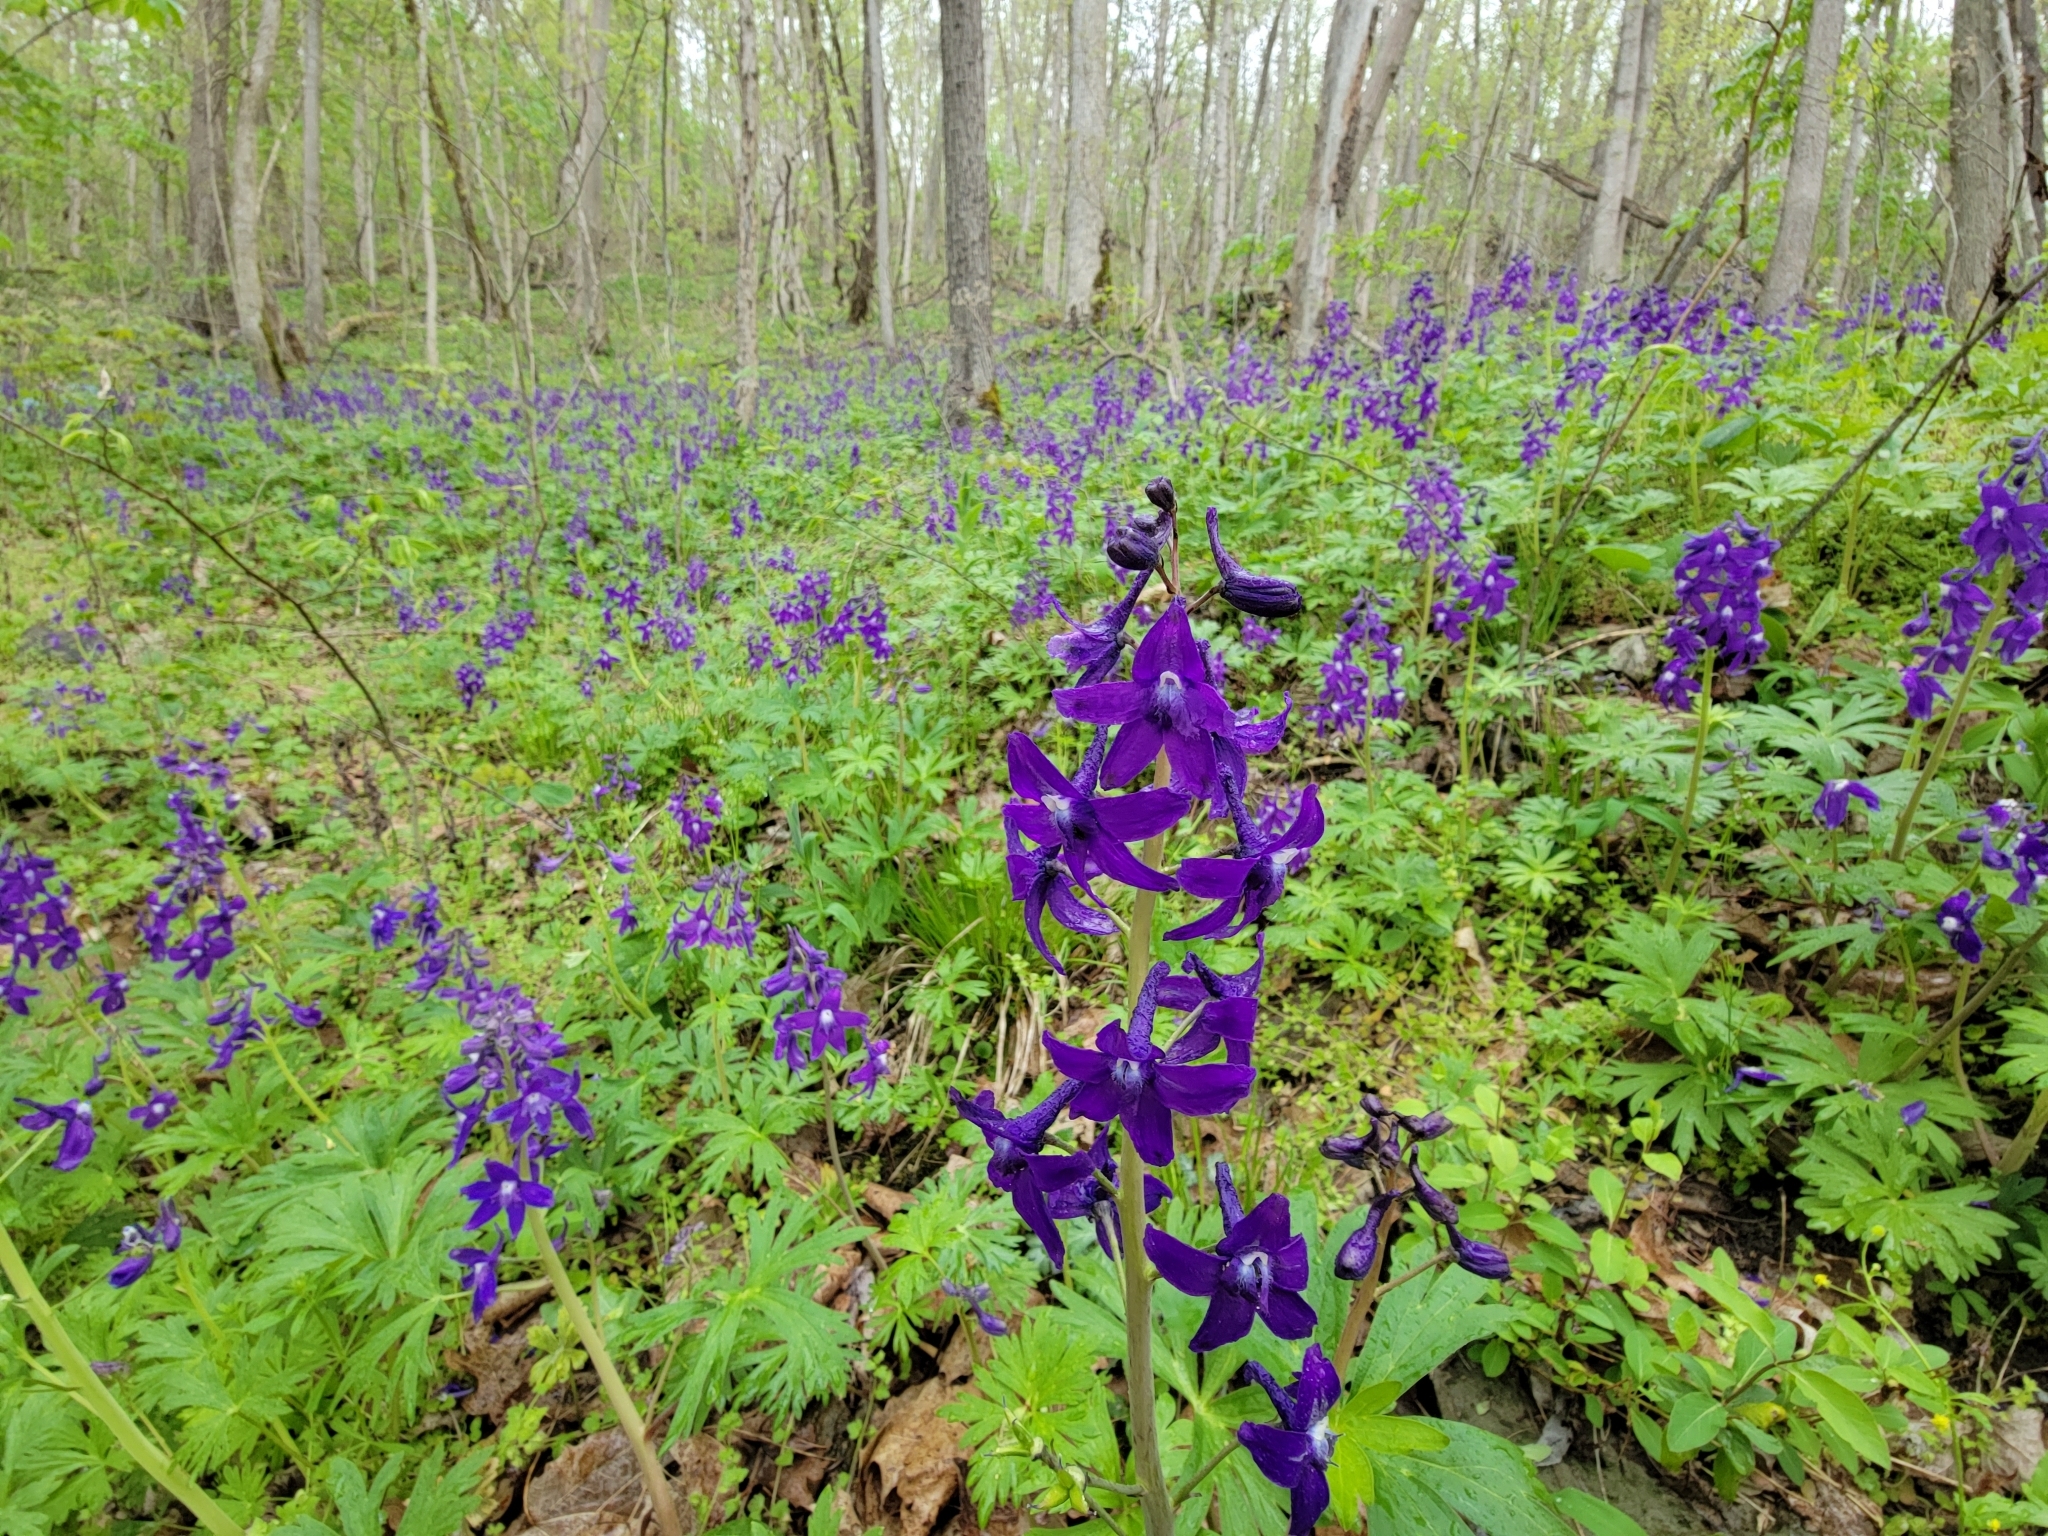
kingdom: Plantae
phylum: Tracheophyta
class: Magnoliopsida
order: Ranunculales
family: Ranunculaceae
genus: Delphinium
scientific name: Delphinium tricorne
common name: Dwarf larkspur
